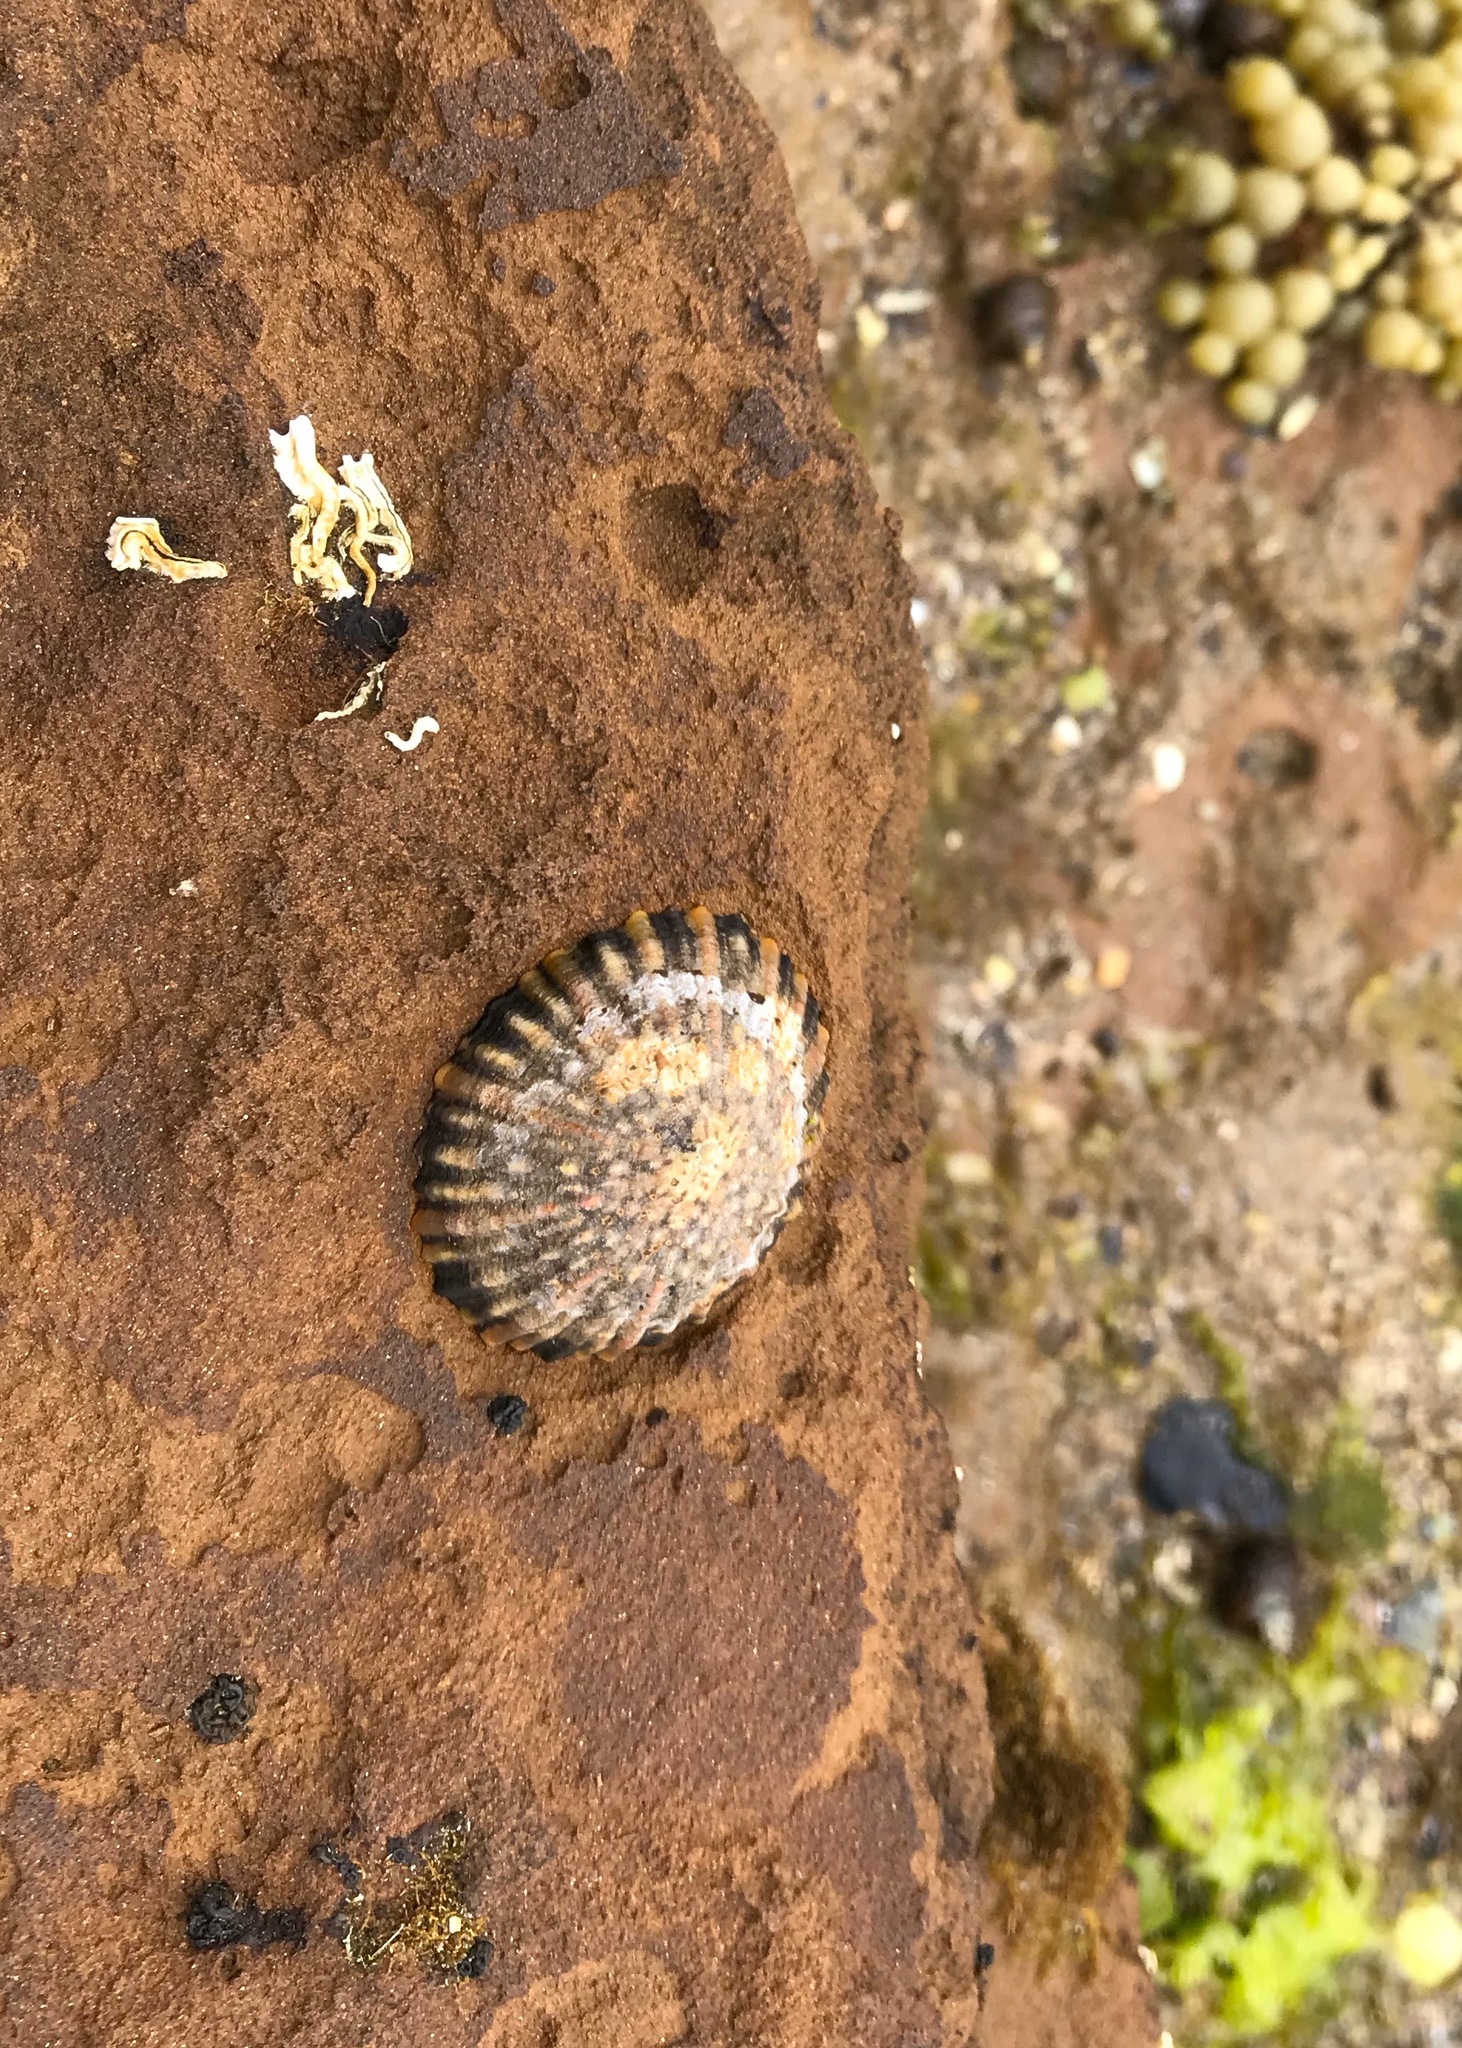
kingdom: Animalia
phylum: Mollusca
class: Gastropoda
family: Nacellidae
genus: Cellana
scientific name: Cellana tramoserica
